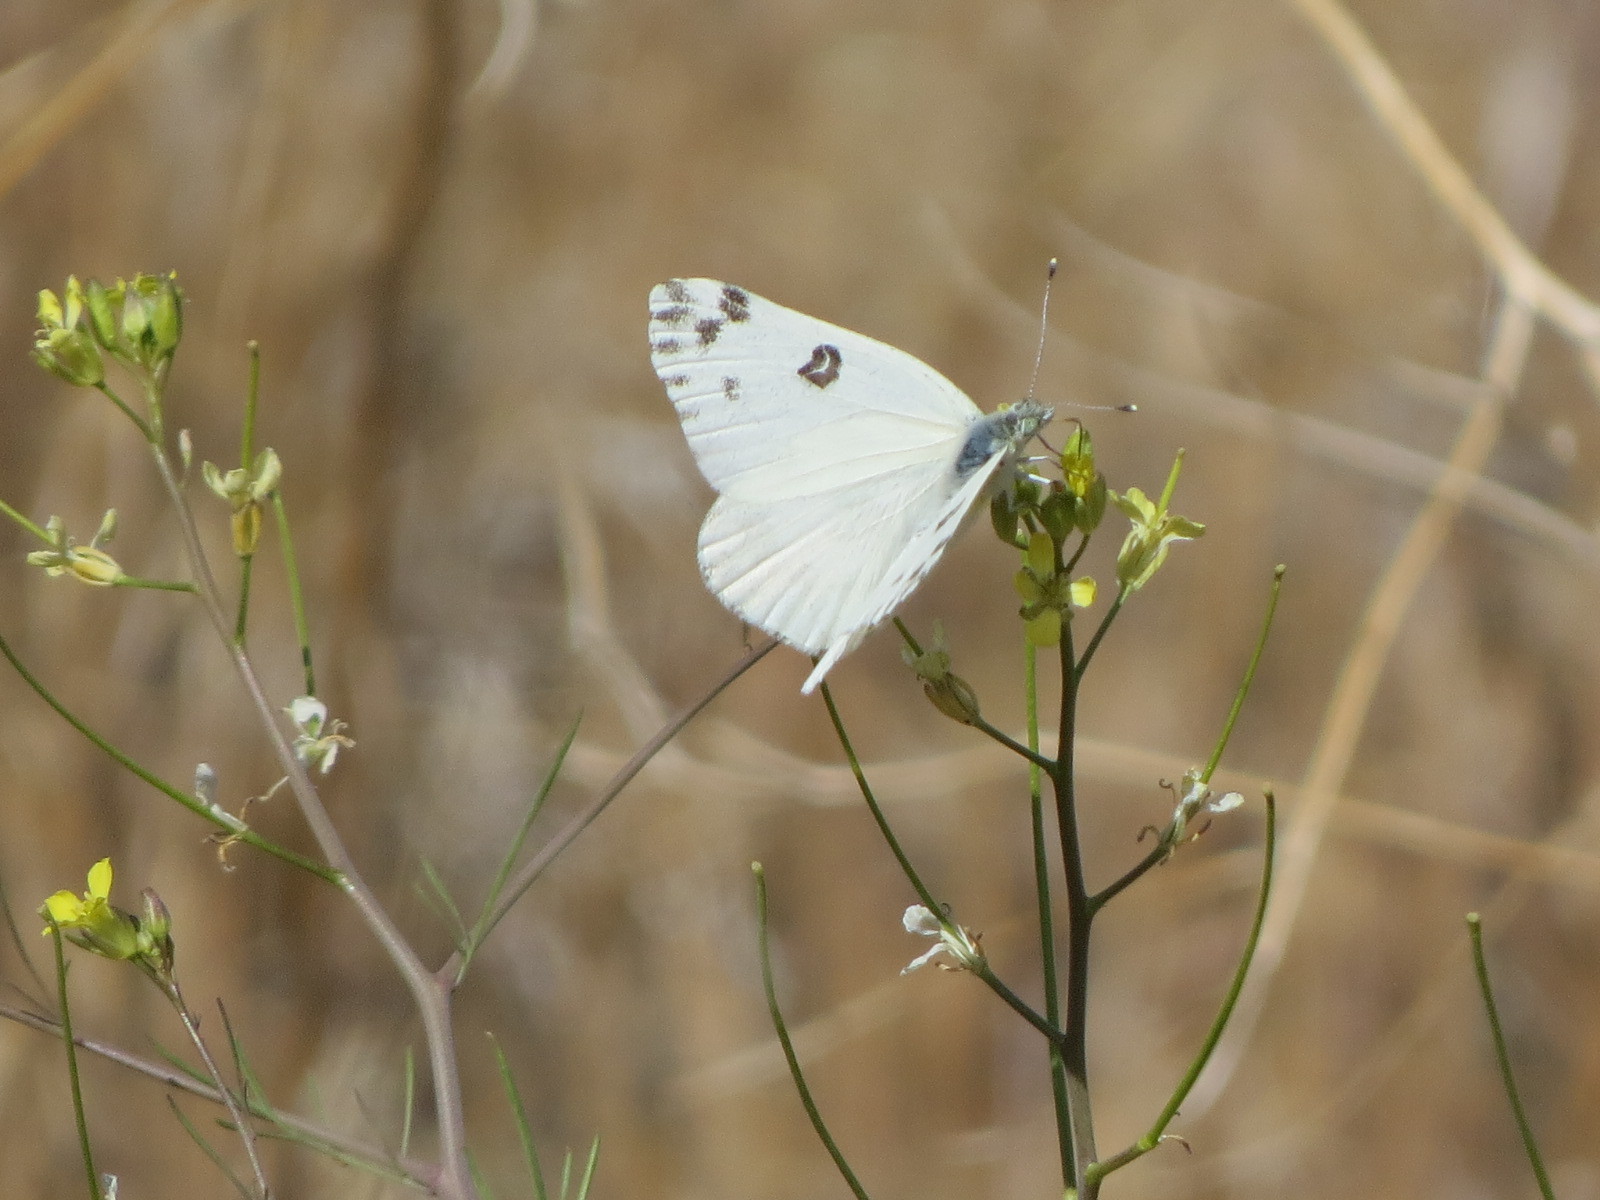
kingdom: Animalia
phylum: Arthropoda
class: Insecta
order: Lepidoptera
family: Pieridae
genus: Pontia
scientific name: Pontia beckerii
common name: Becker's white
